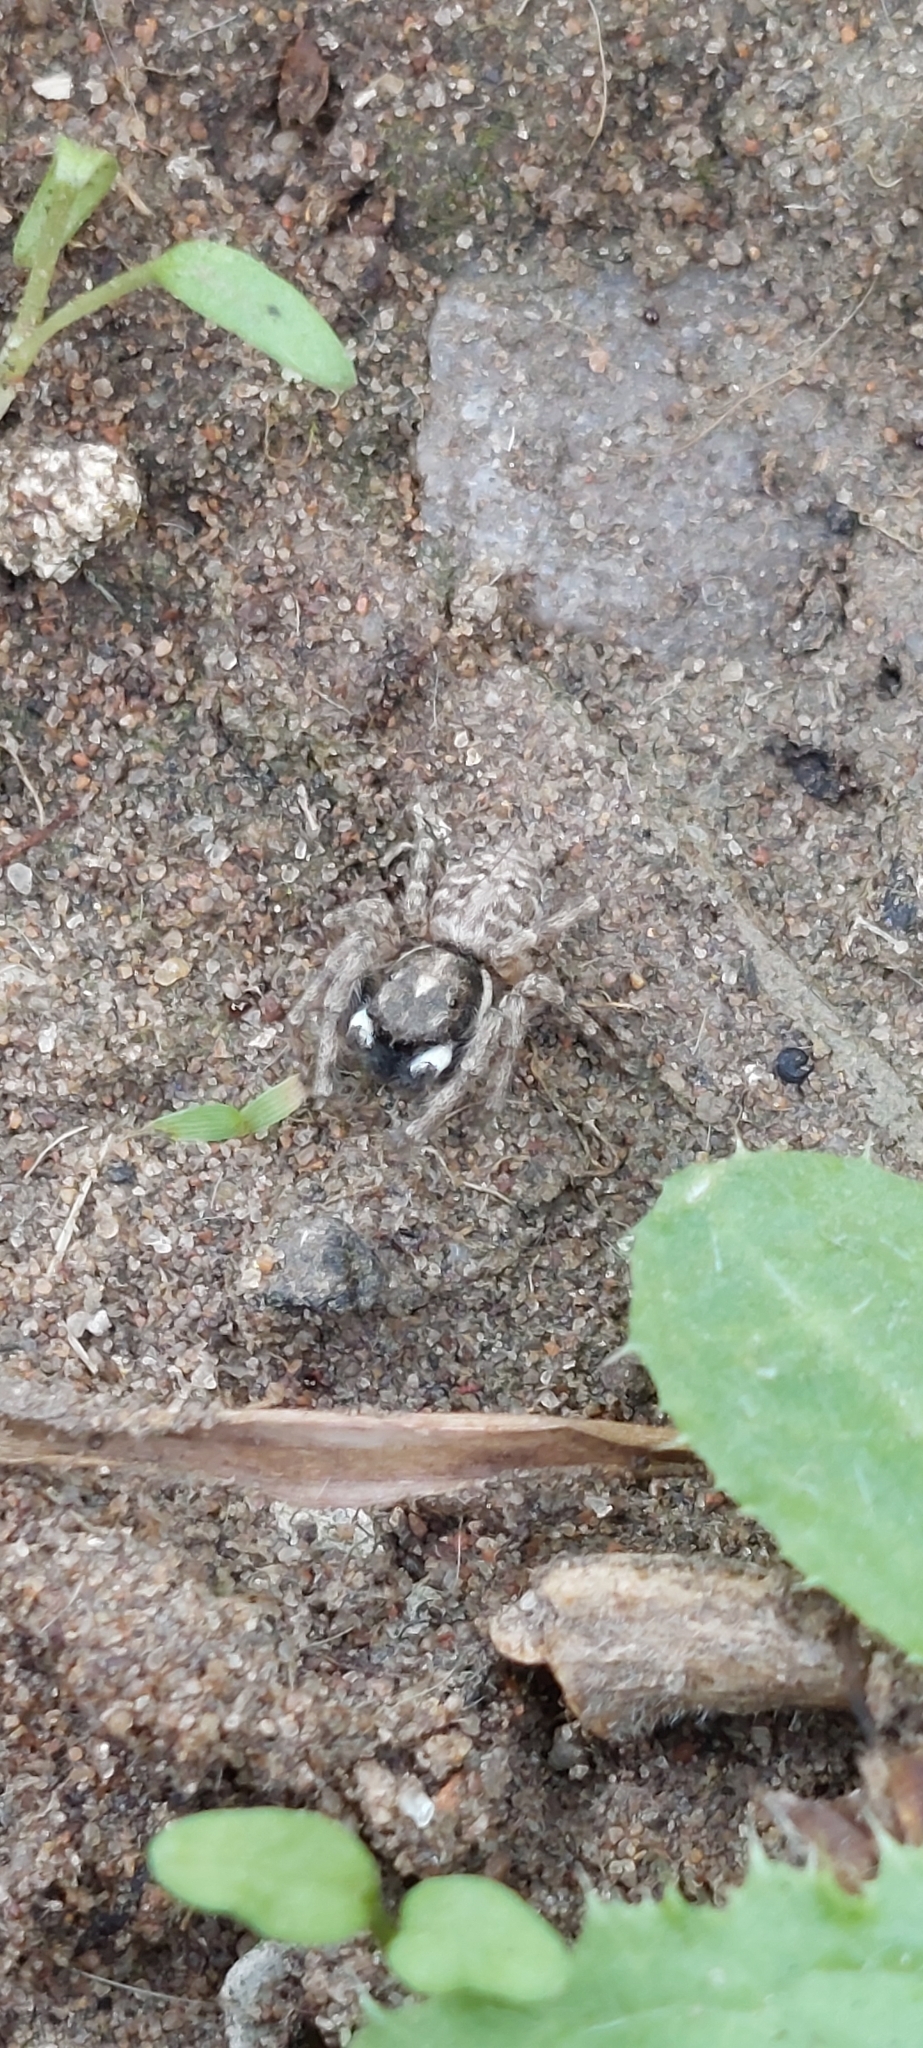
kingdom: Animalia
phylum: Arthropoda
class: Arachnida
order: Araneae
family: Salticidae
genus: Menemerus
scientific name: Menemerus semilimbatus
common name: Jumping spider
